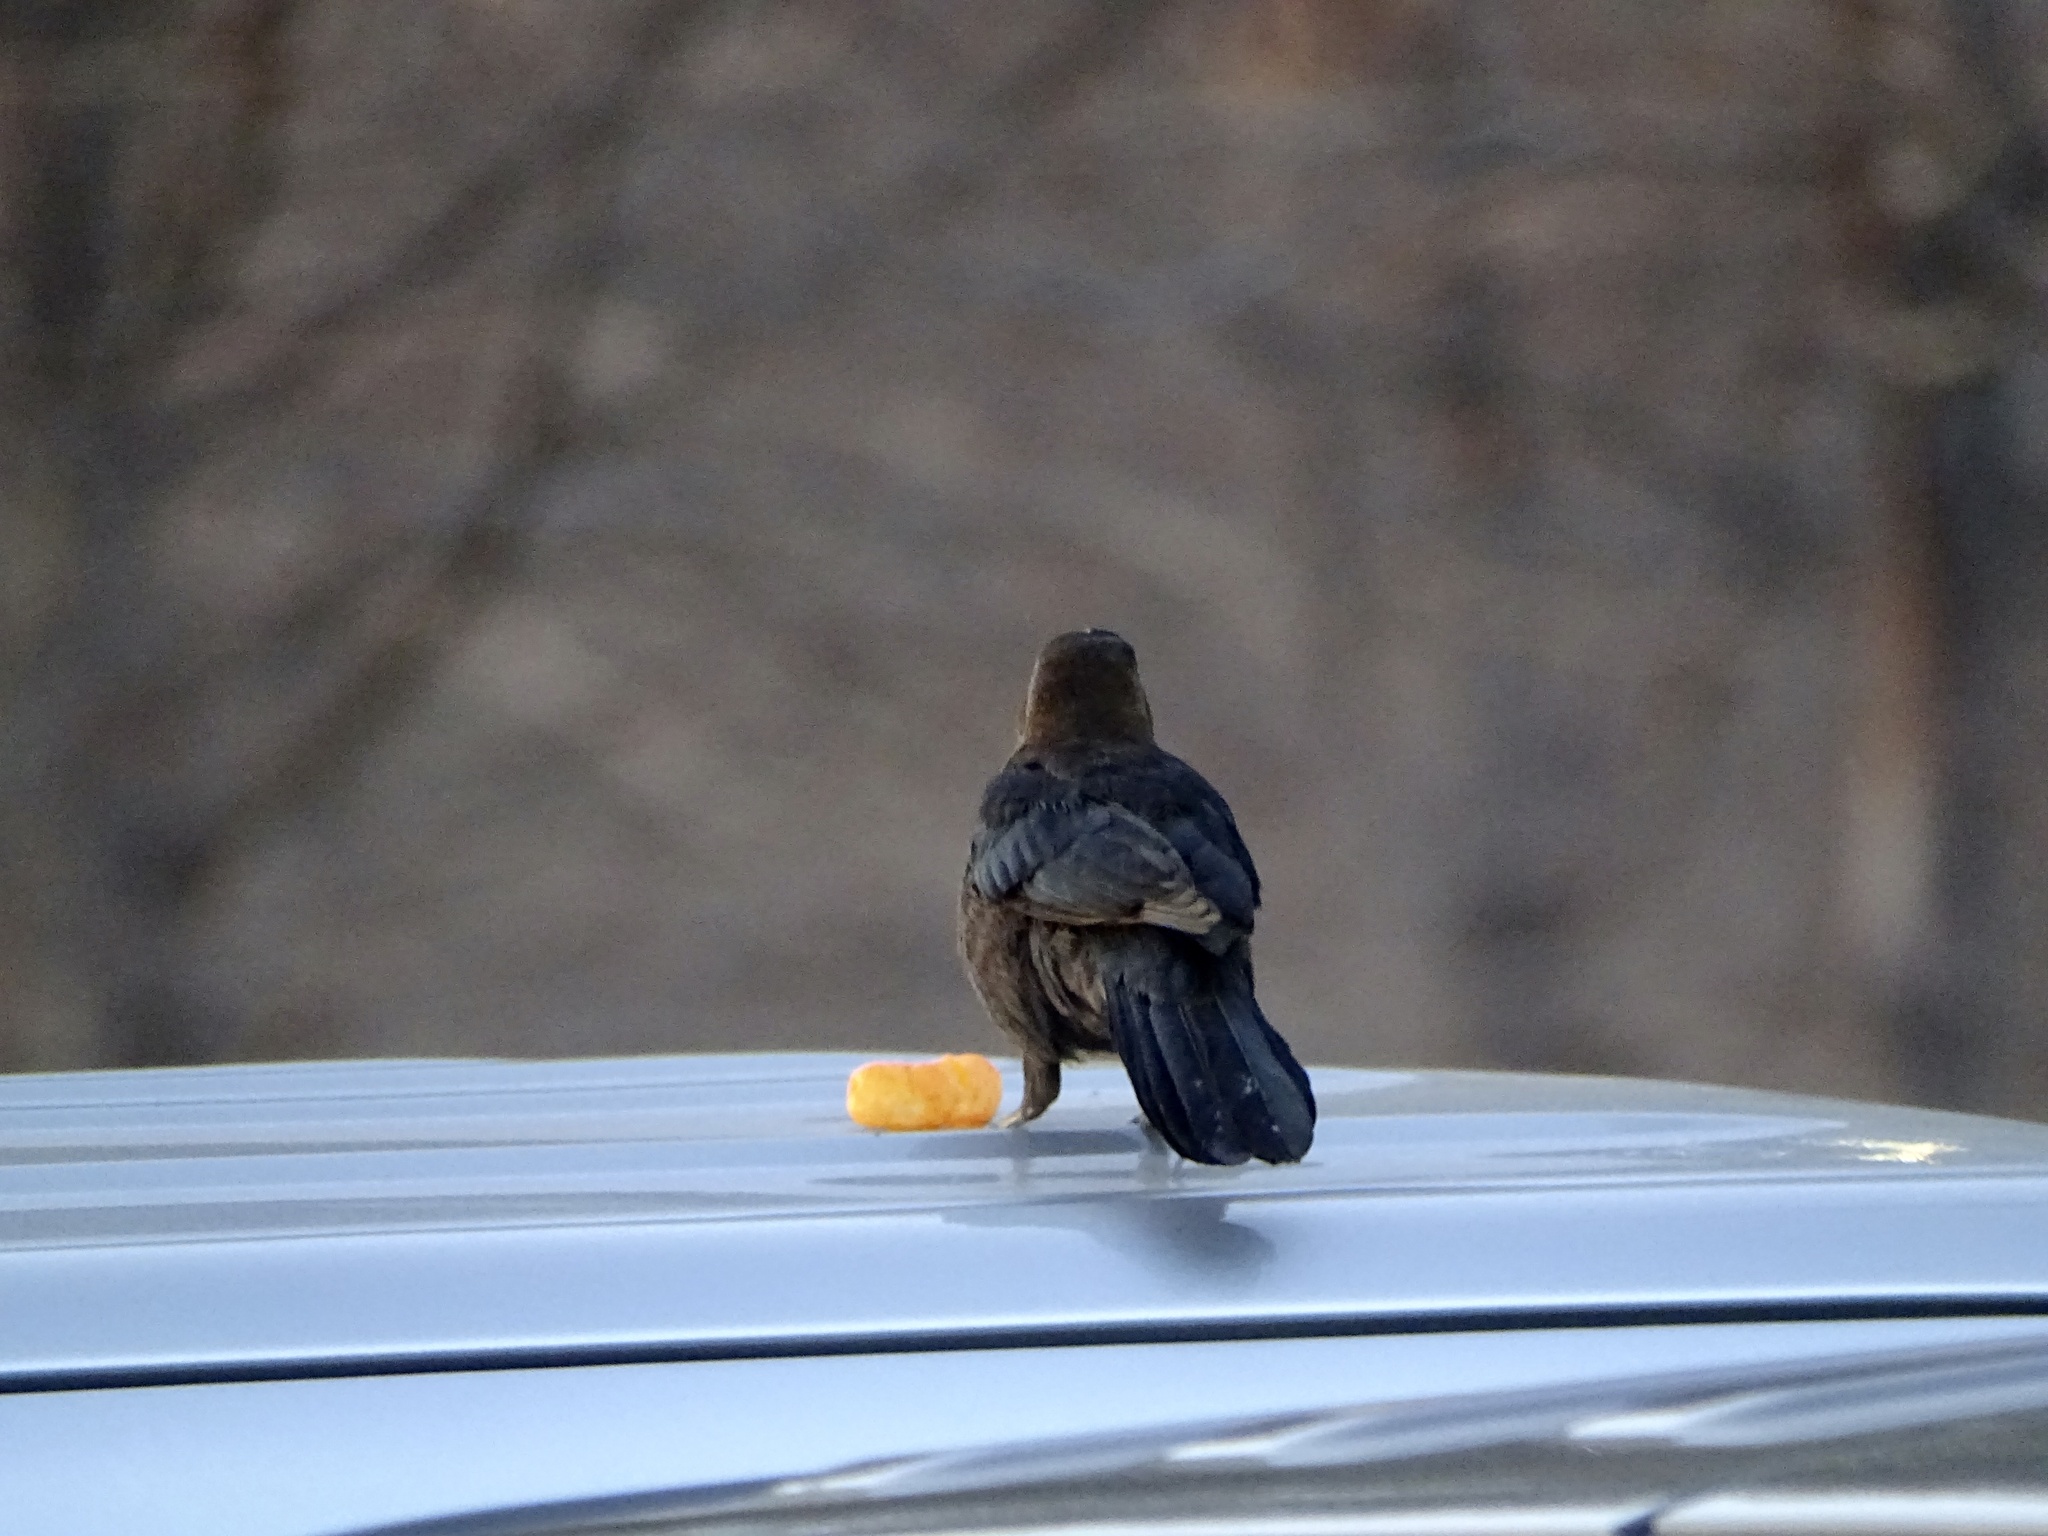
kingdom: Animalia
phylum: Chordata
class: Aves
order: Passeriformes
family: Icteridae
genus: Quiscalus
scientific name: Quiscalus mexicanus
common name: Great-tailed grackle
